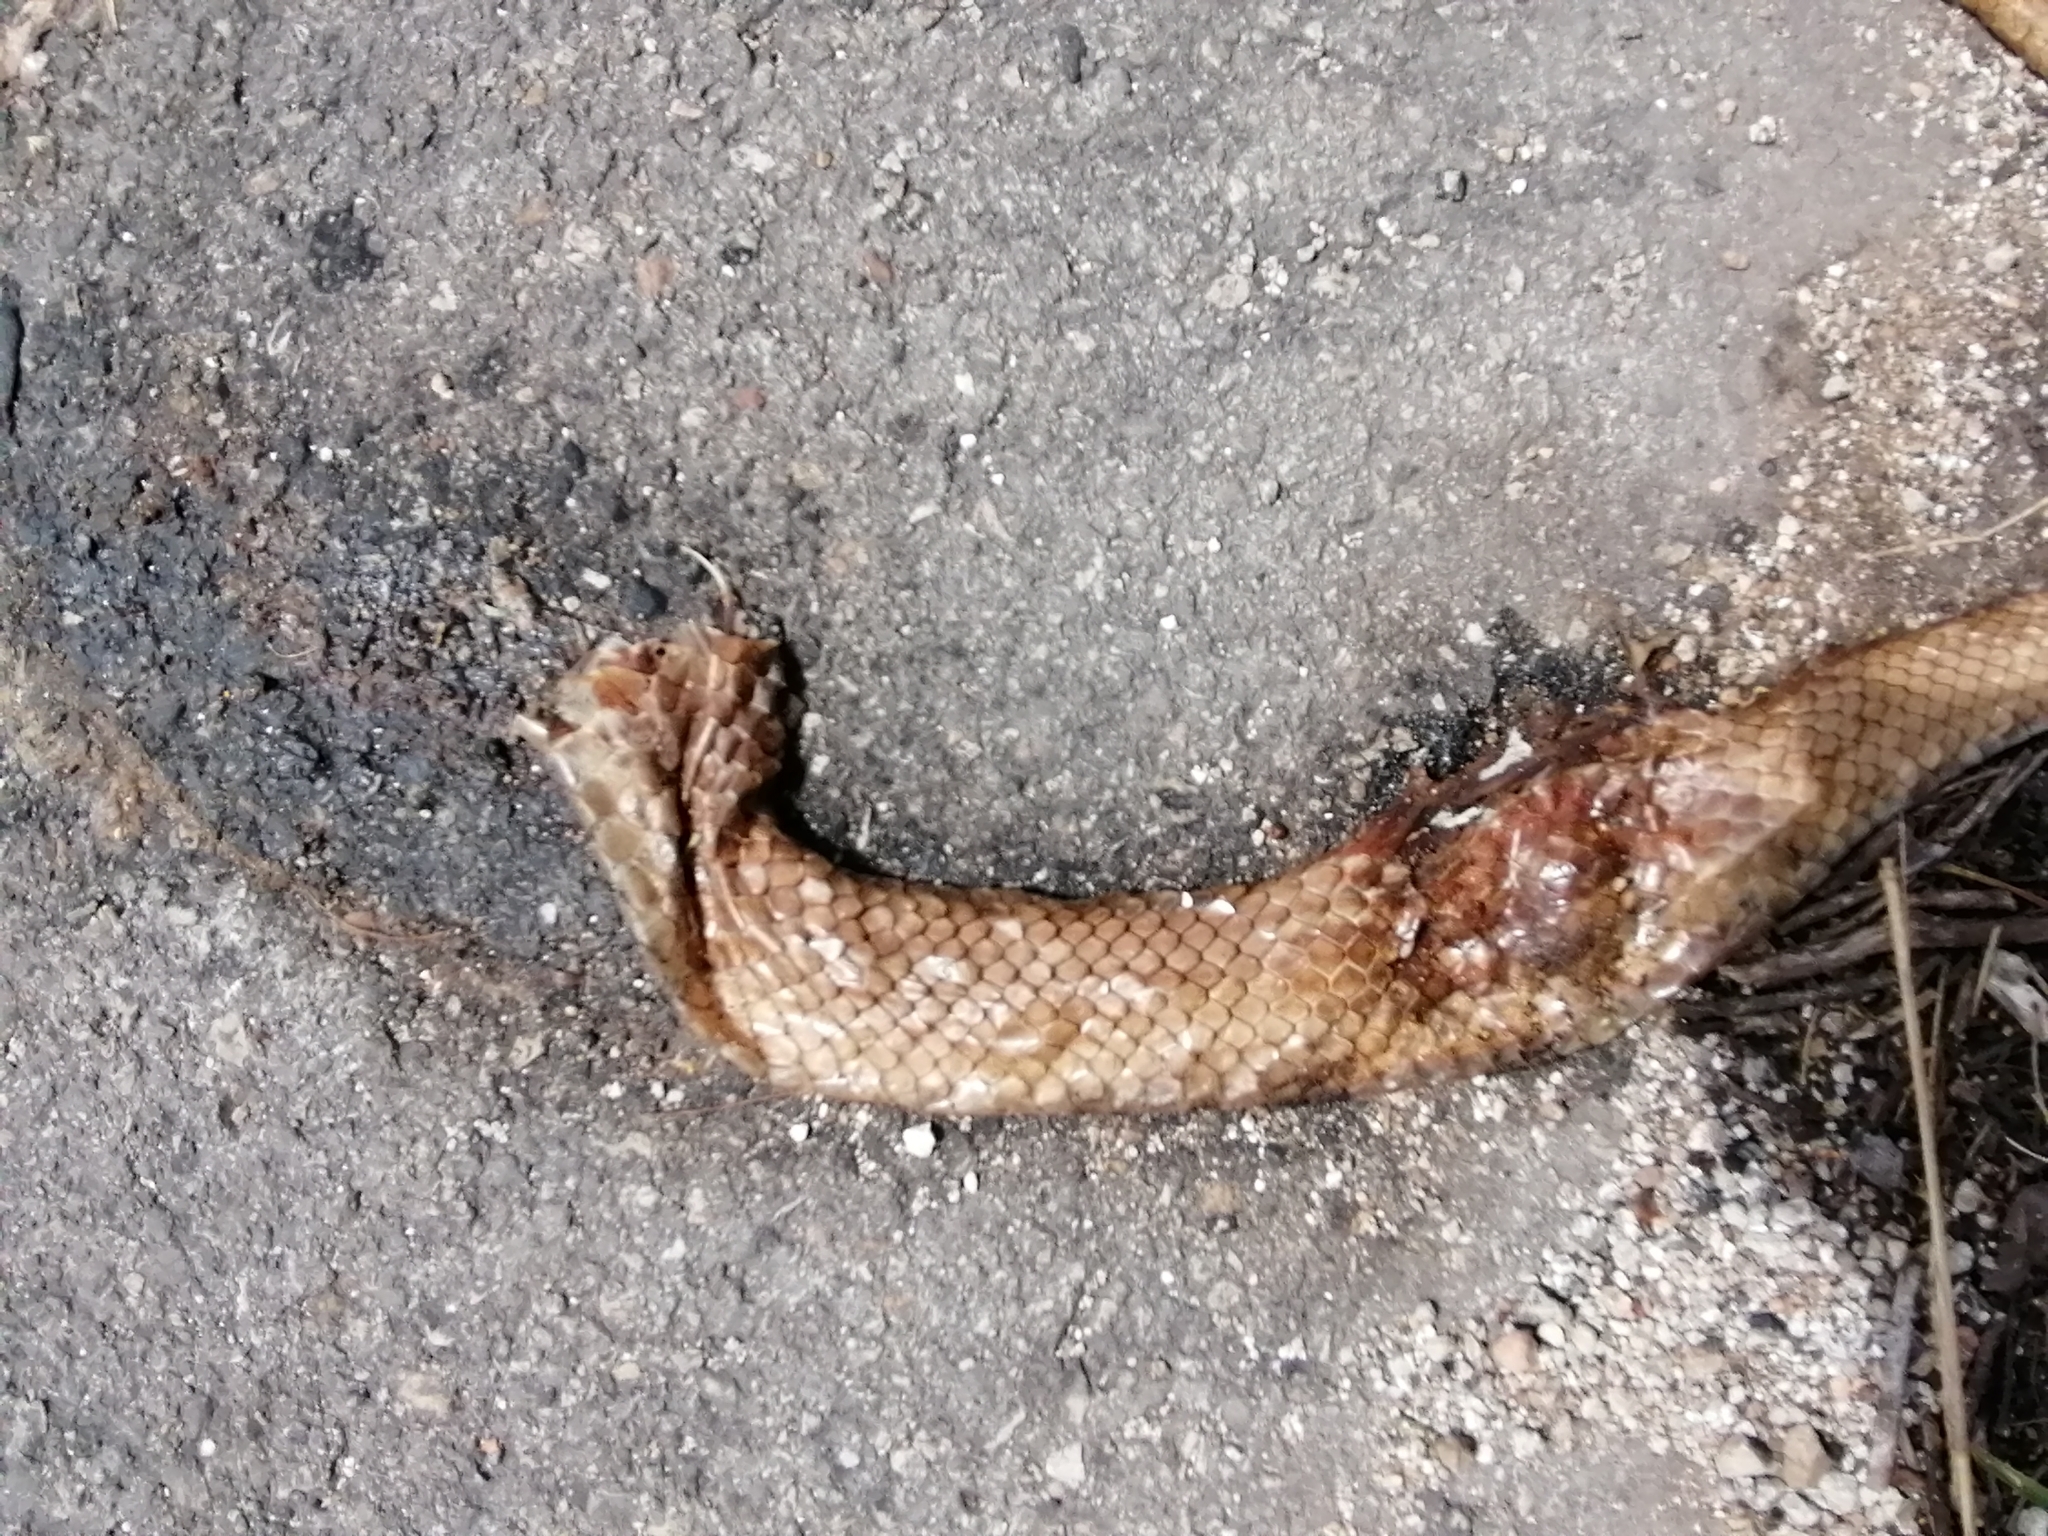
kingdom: Animalia
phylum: Chordata
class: Squamata
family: Colubridae
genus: Masticophis
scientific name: Masticophis mentovarius
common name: Neotropical whip snake
